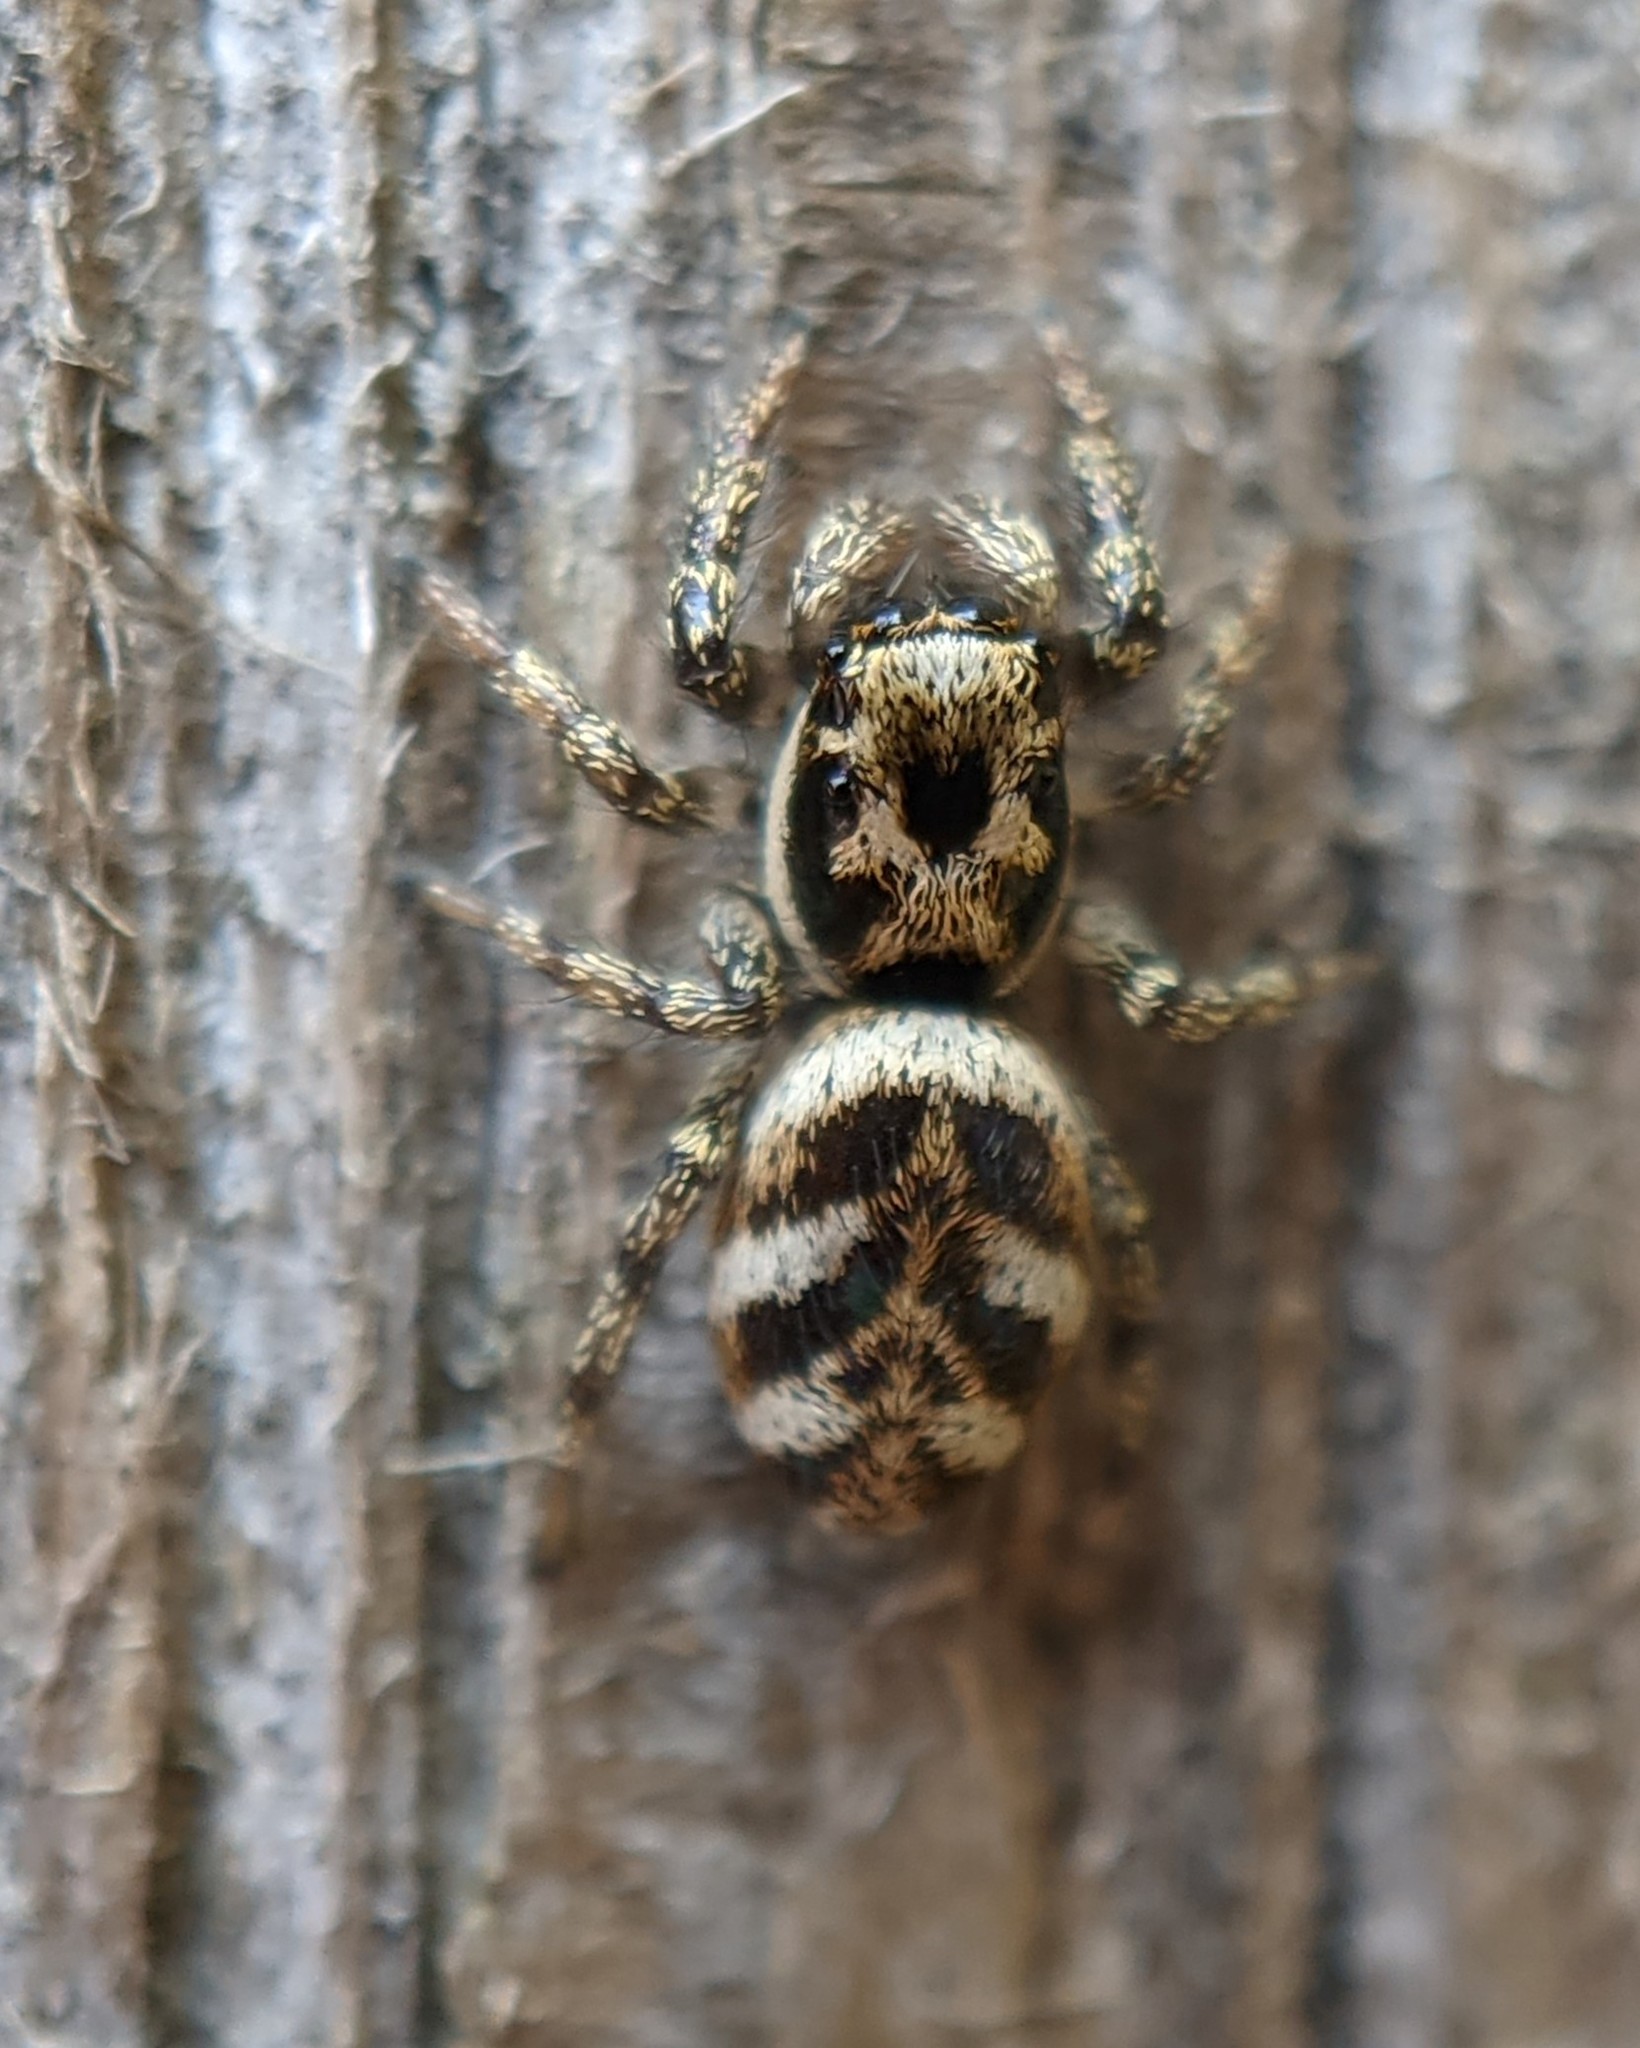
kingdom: Animalia
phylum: Arthropoda
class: Arachnida
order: Araneae
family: Salticidae
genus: Salticus
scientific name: Salticus scenicus
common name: Zebra jumper
